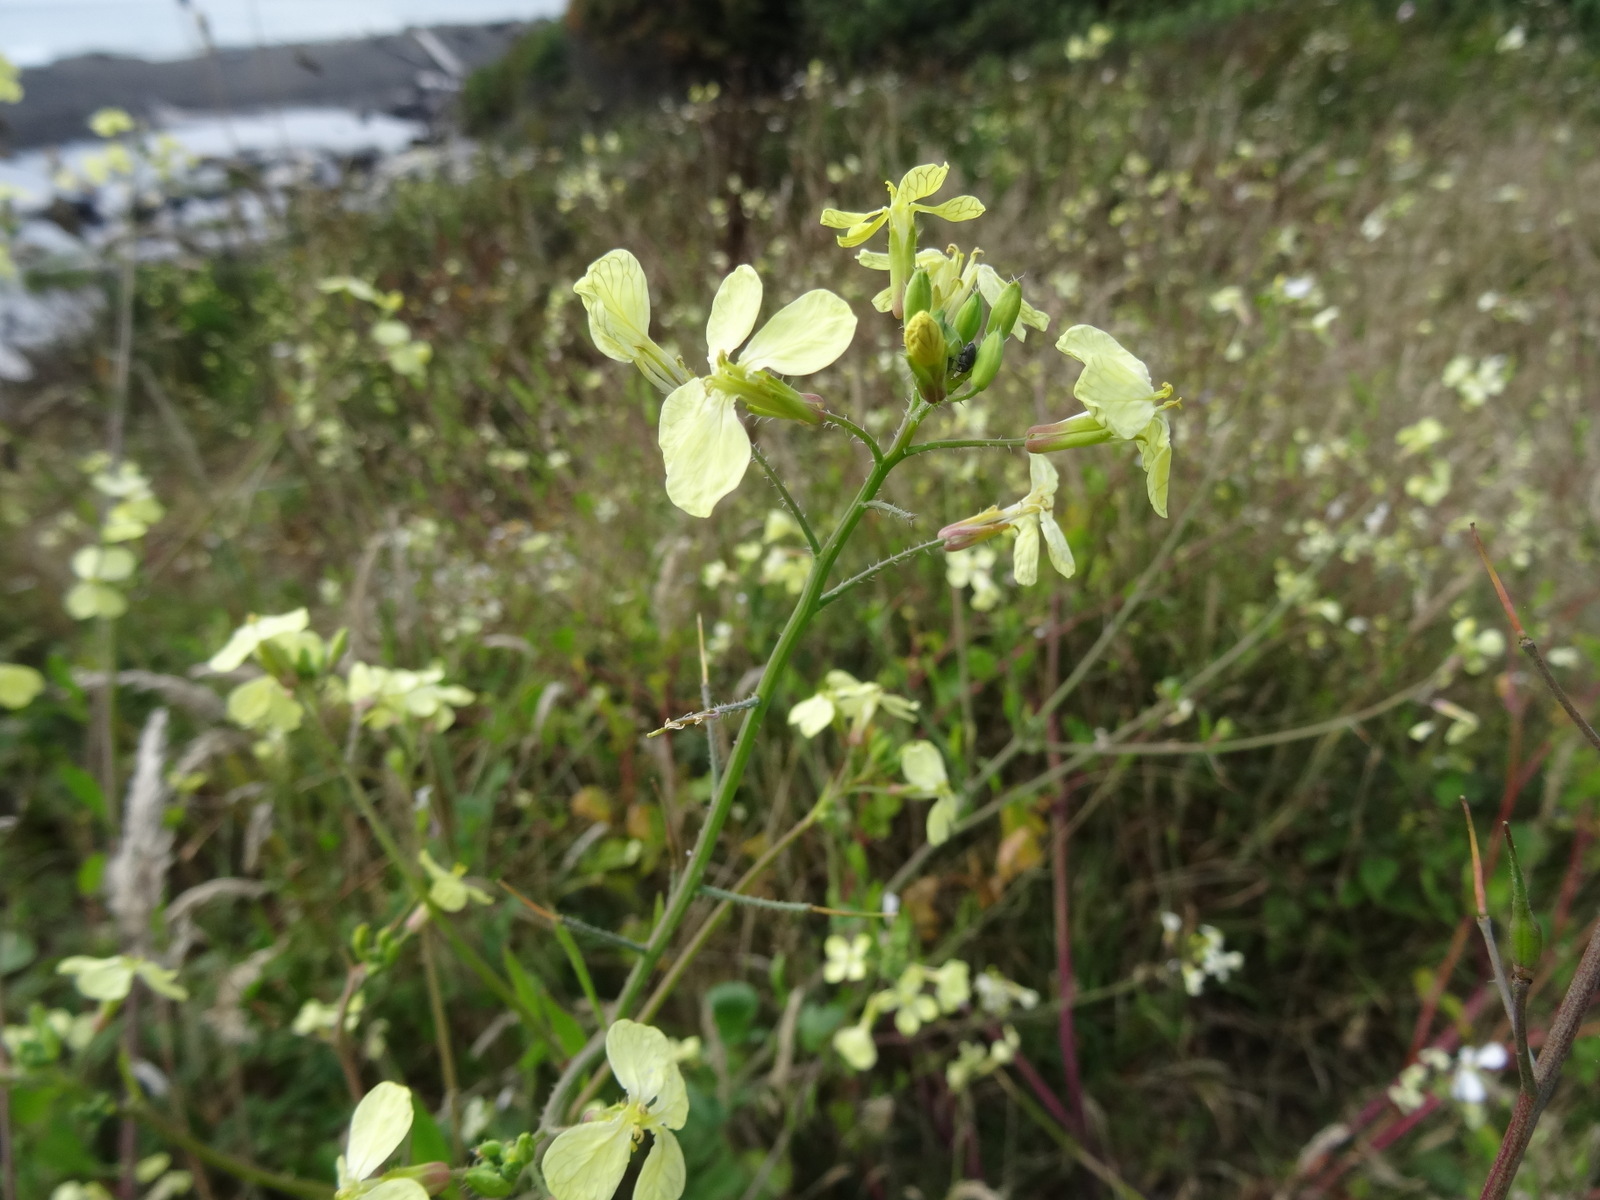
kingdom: Plantae
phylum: Tracheophyta
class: Magnoliopsida
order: Brassicales
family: Brassicaceae
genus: Raphanus
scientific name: Raphanus raphanistrum
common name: Wild radish
